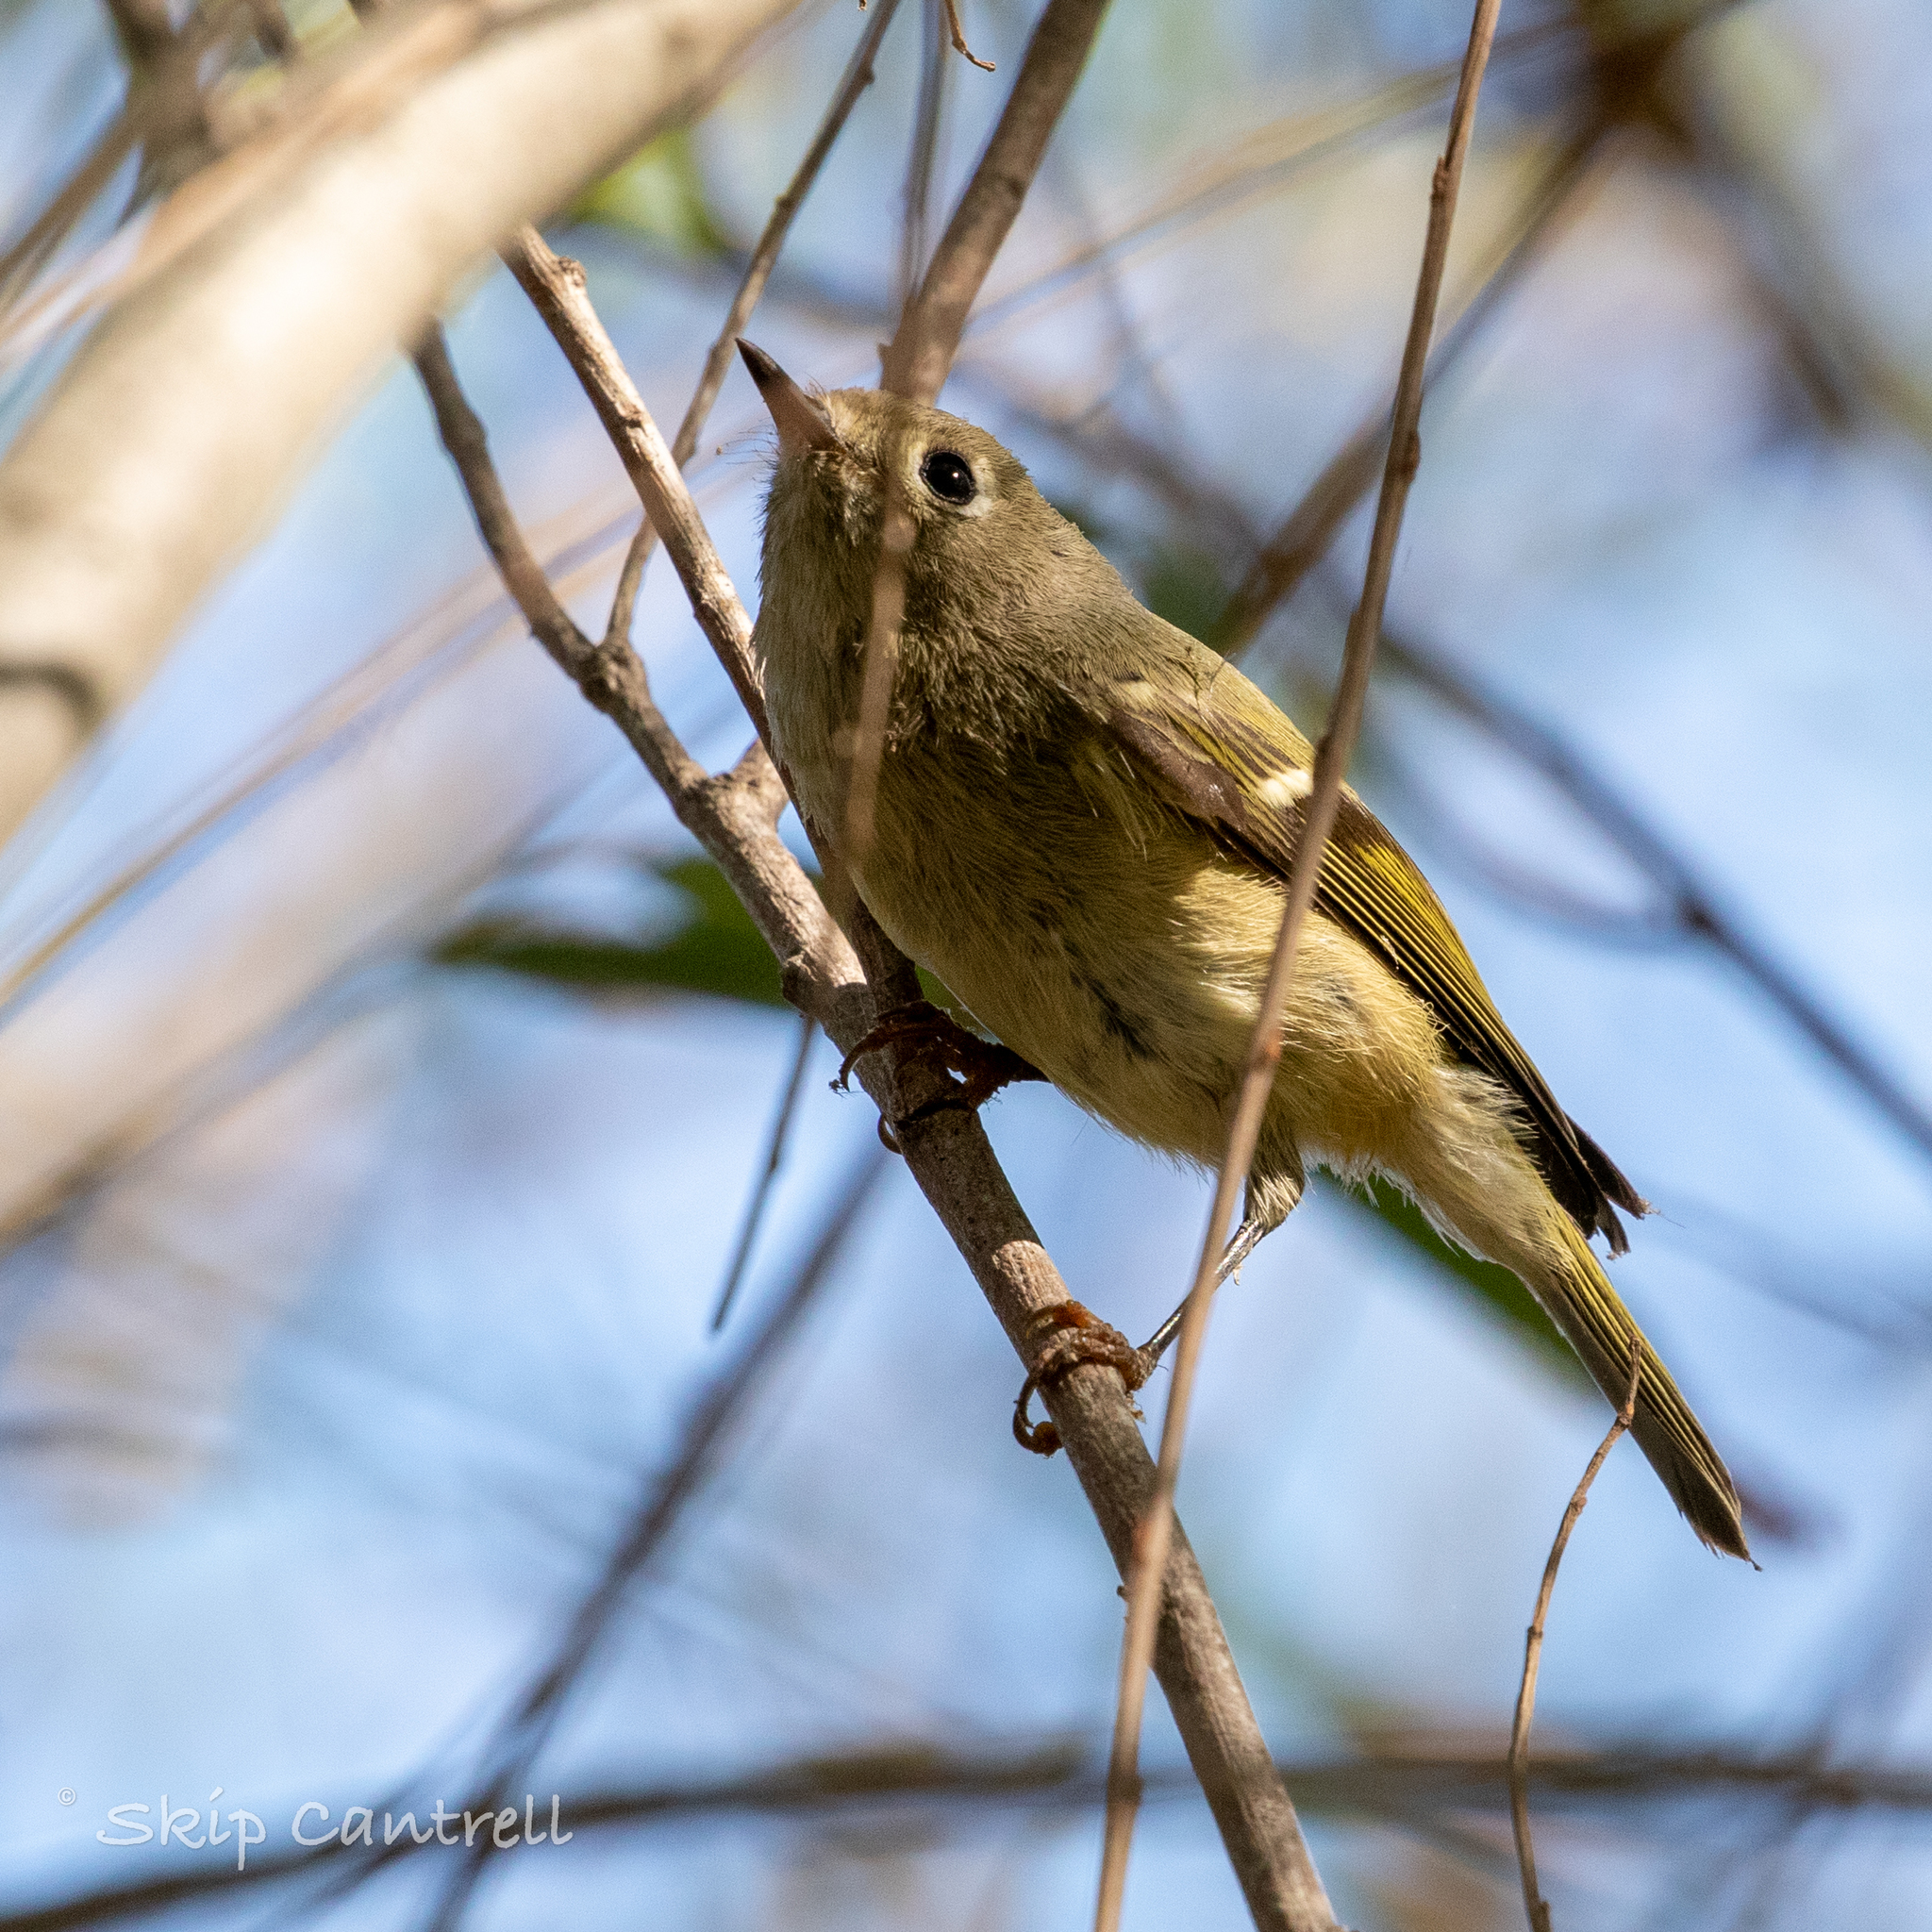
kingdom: Animalia
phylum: Chordata
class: Aves
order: Passeriformes
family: Regulidae
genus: Regulus
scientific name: Regulus calendula
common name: Ruby-crowned kinglet
